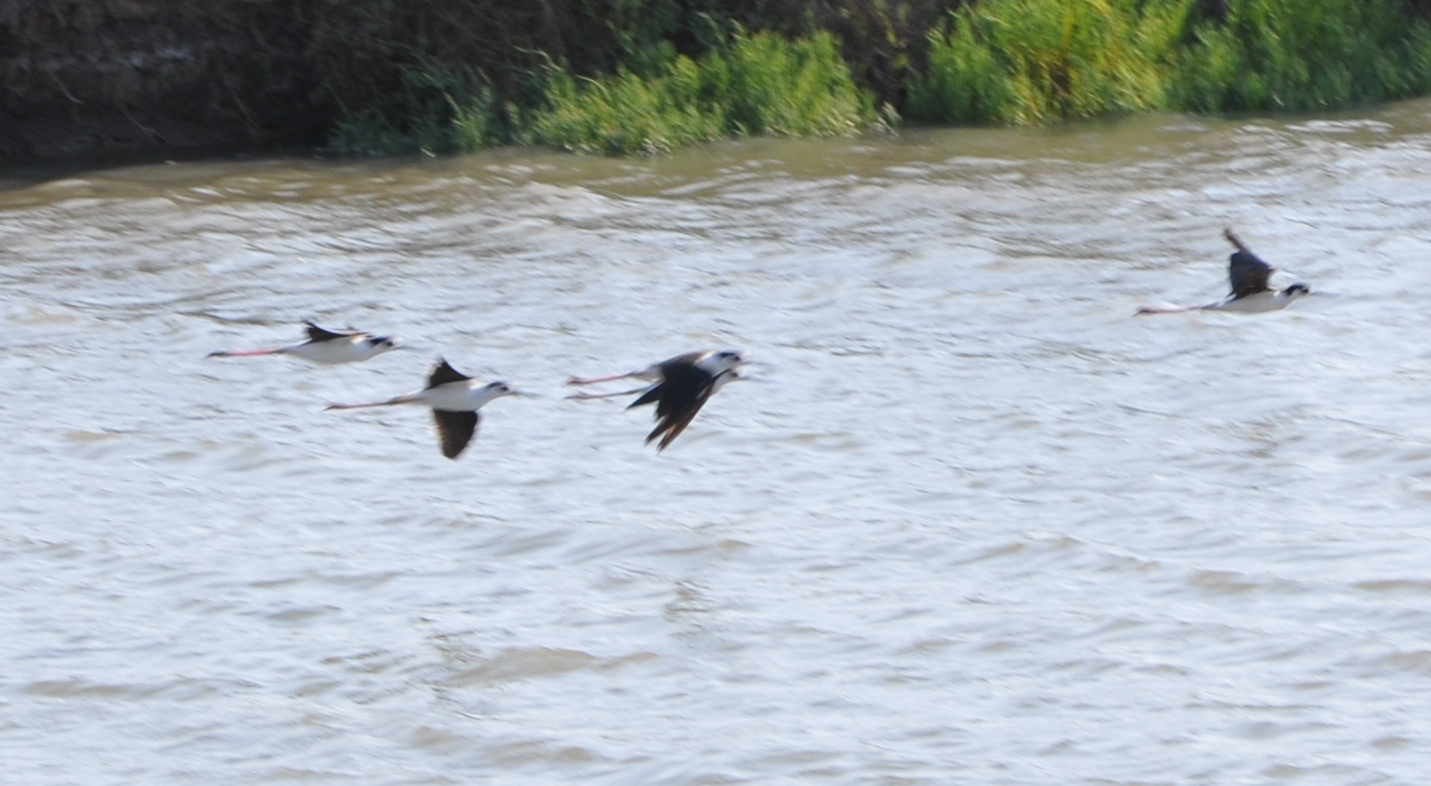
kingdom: Animalia
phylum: Chordata
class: Aves
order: Charadriiformes
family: Recurvirostridae
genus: Himantopus
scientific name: Himantopus mexicanus
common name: Black-necked stilt
